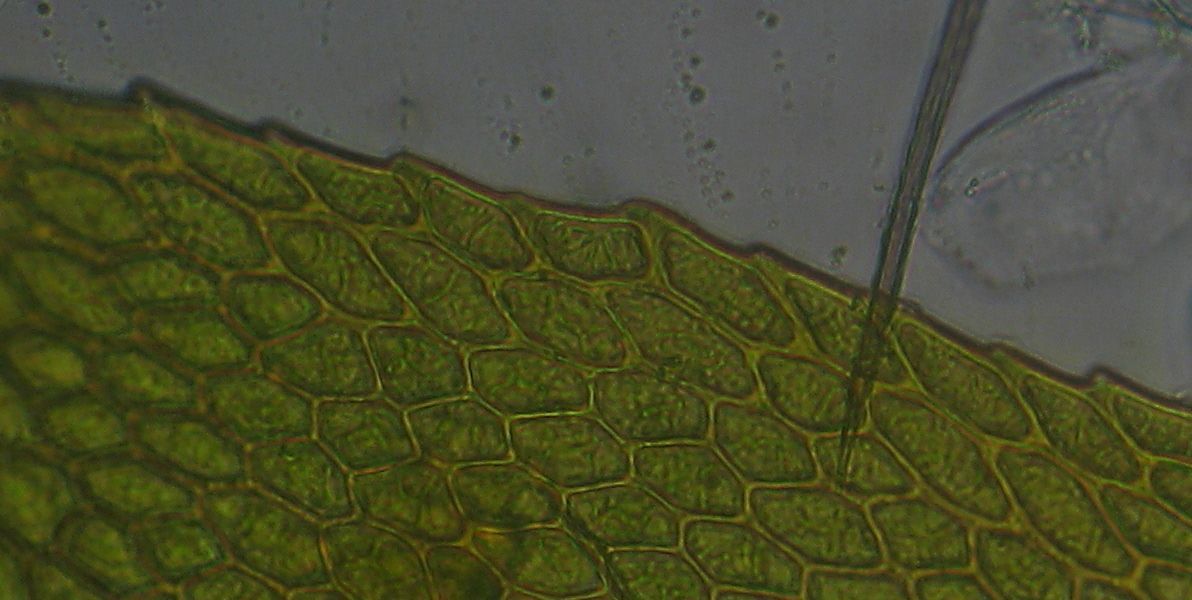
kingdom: Plantae
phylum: Bryophyta
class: Bryopsida
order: Hypnodendrales
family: Racopilaceae
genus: Racopilum
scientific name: Racopilum robustum
